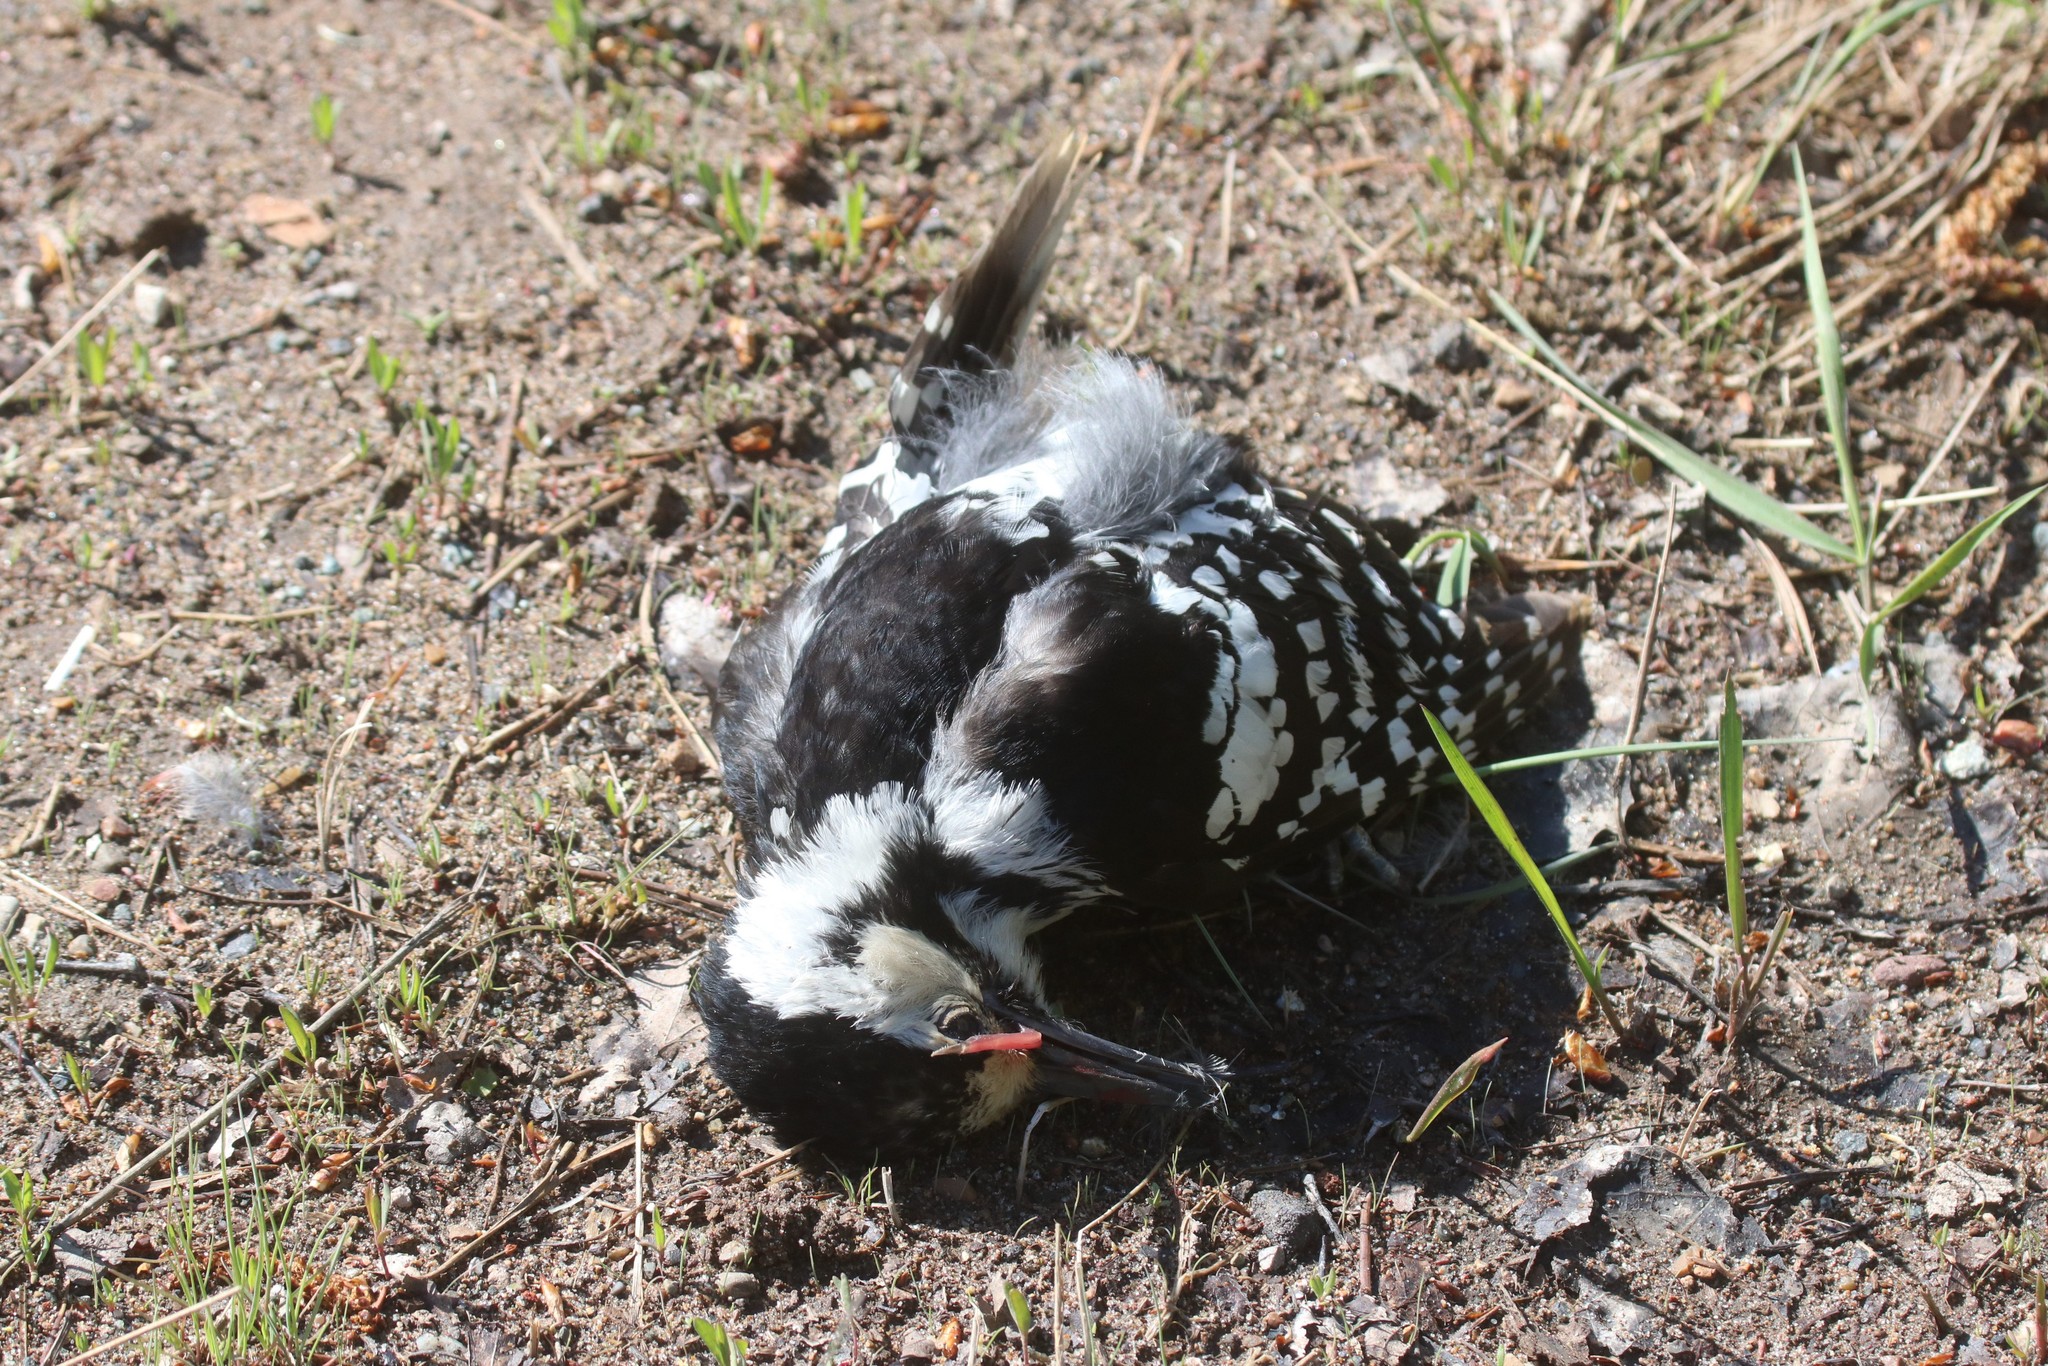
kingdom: Animalia
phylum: Chordata
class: Aves
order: Piciformes
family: Picidae
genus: Dendrocopos
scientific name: Dendrocopos leucotos
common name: White-backed woodpecker
